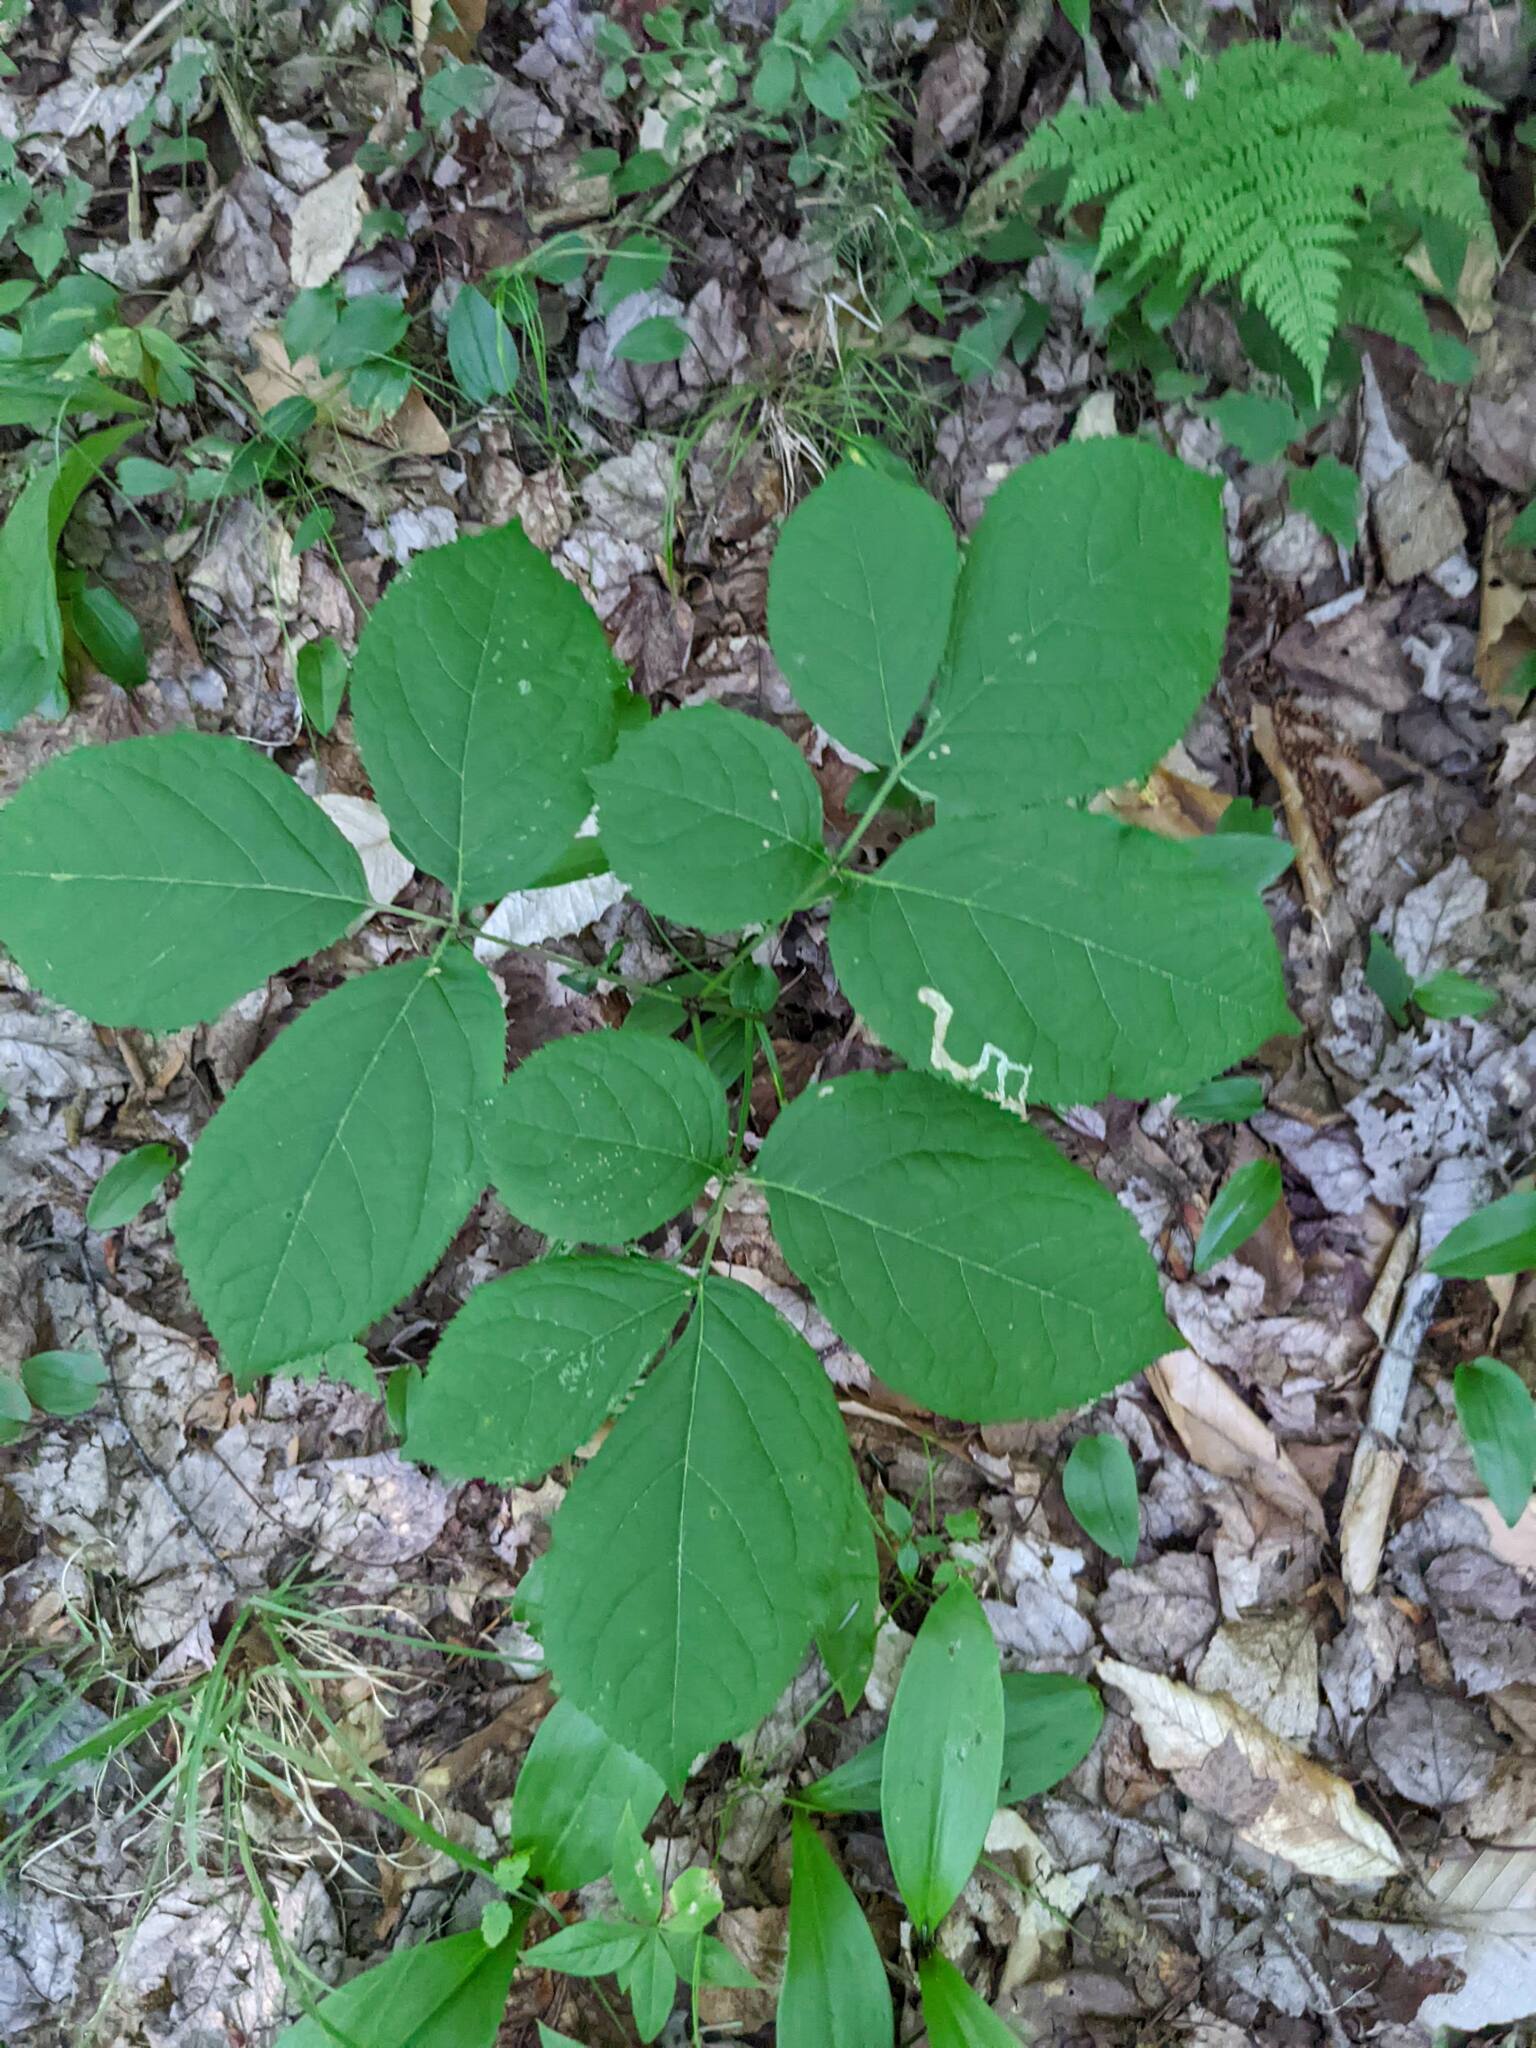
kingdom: Plantae
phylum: Tracheophyta
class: Magnoliopsida
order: Apiales
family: Araliaceae
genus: Aralia
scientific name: Aralia nudicaulis
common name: Wild sarsaparilla
